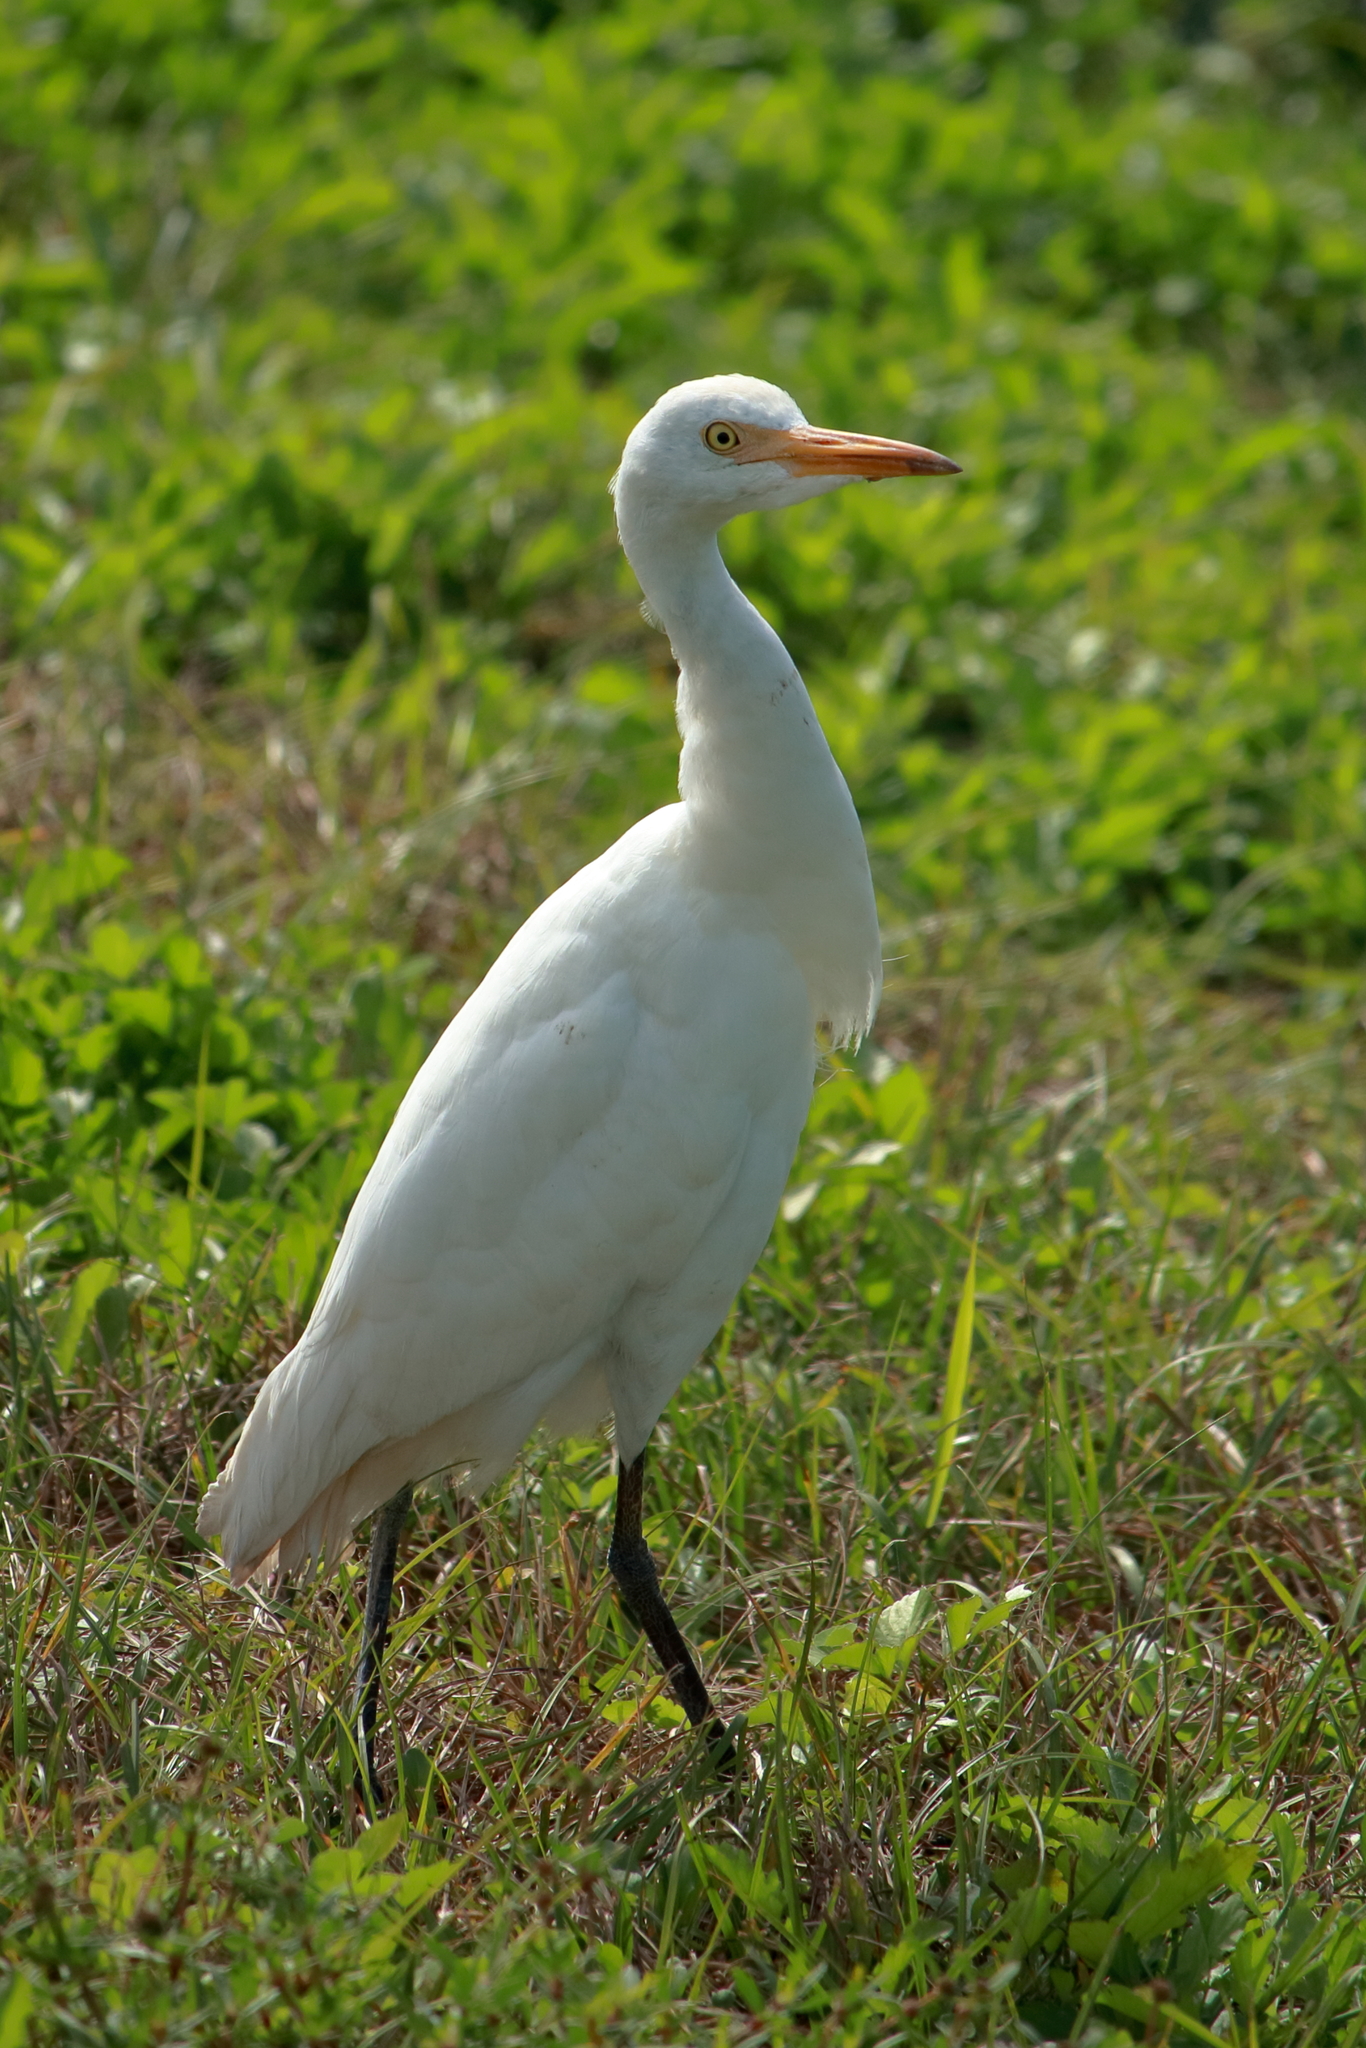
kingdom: Animalia
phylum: Chordata
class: Aves
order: Pelecaniformes
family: Ardeidae
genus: Bubulcus
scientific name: Bubulcus ibis
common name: Cattle egret
